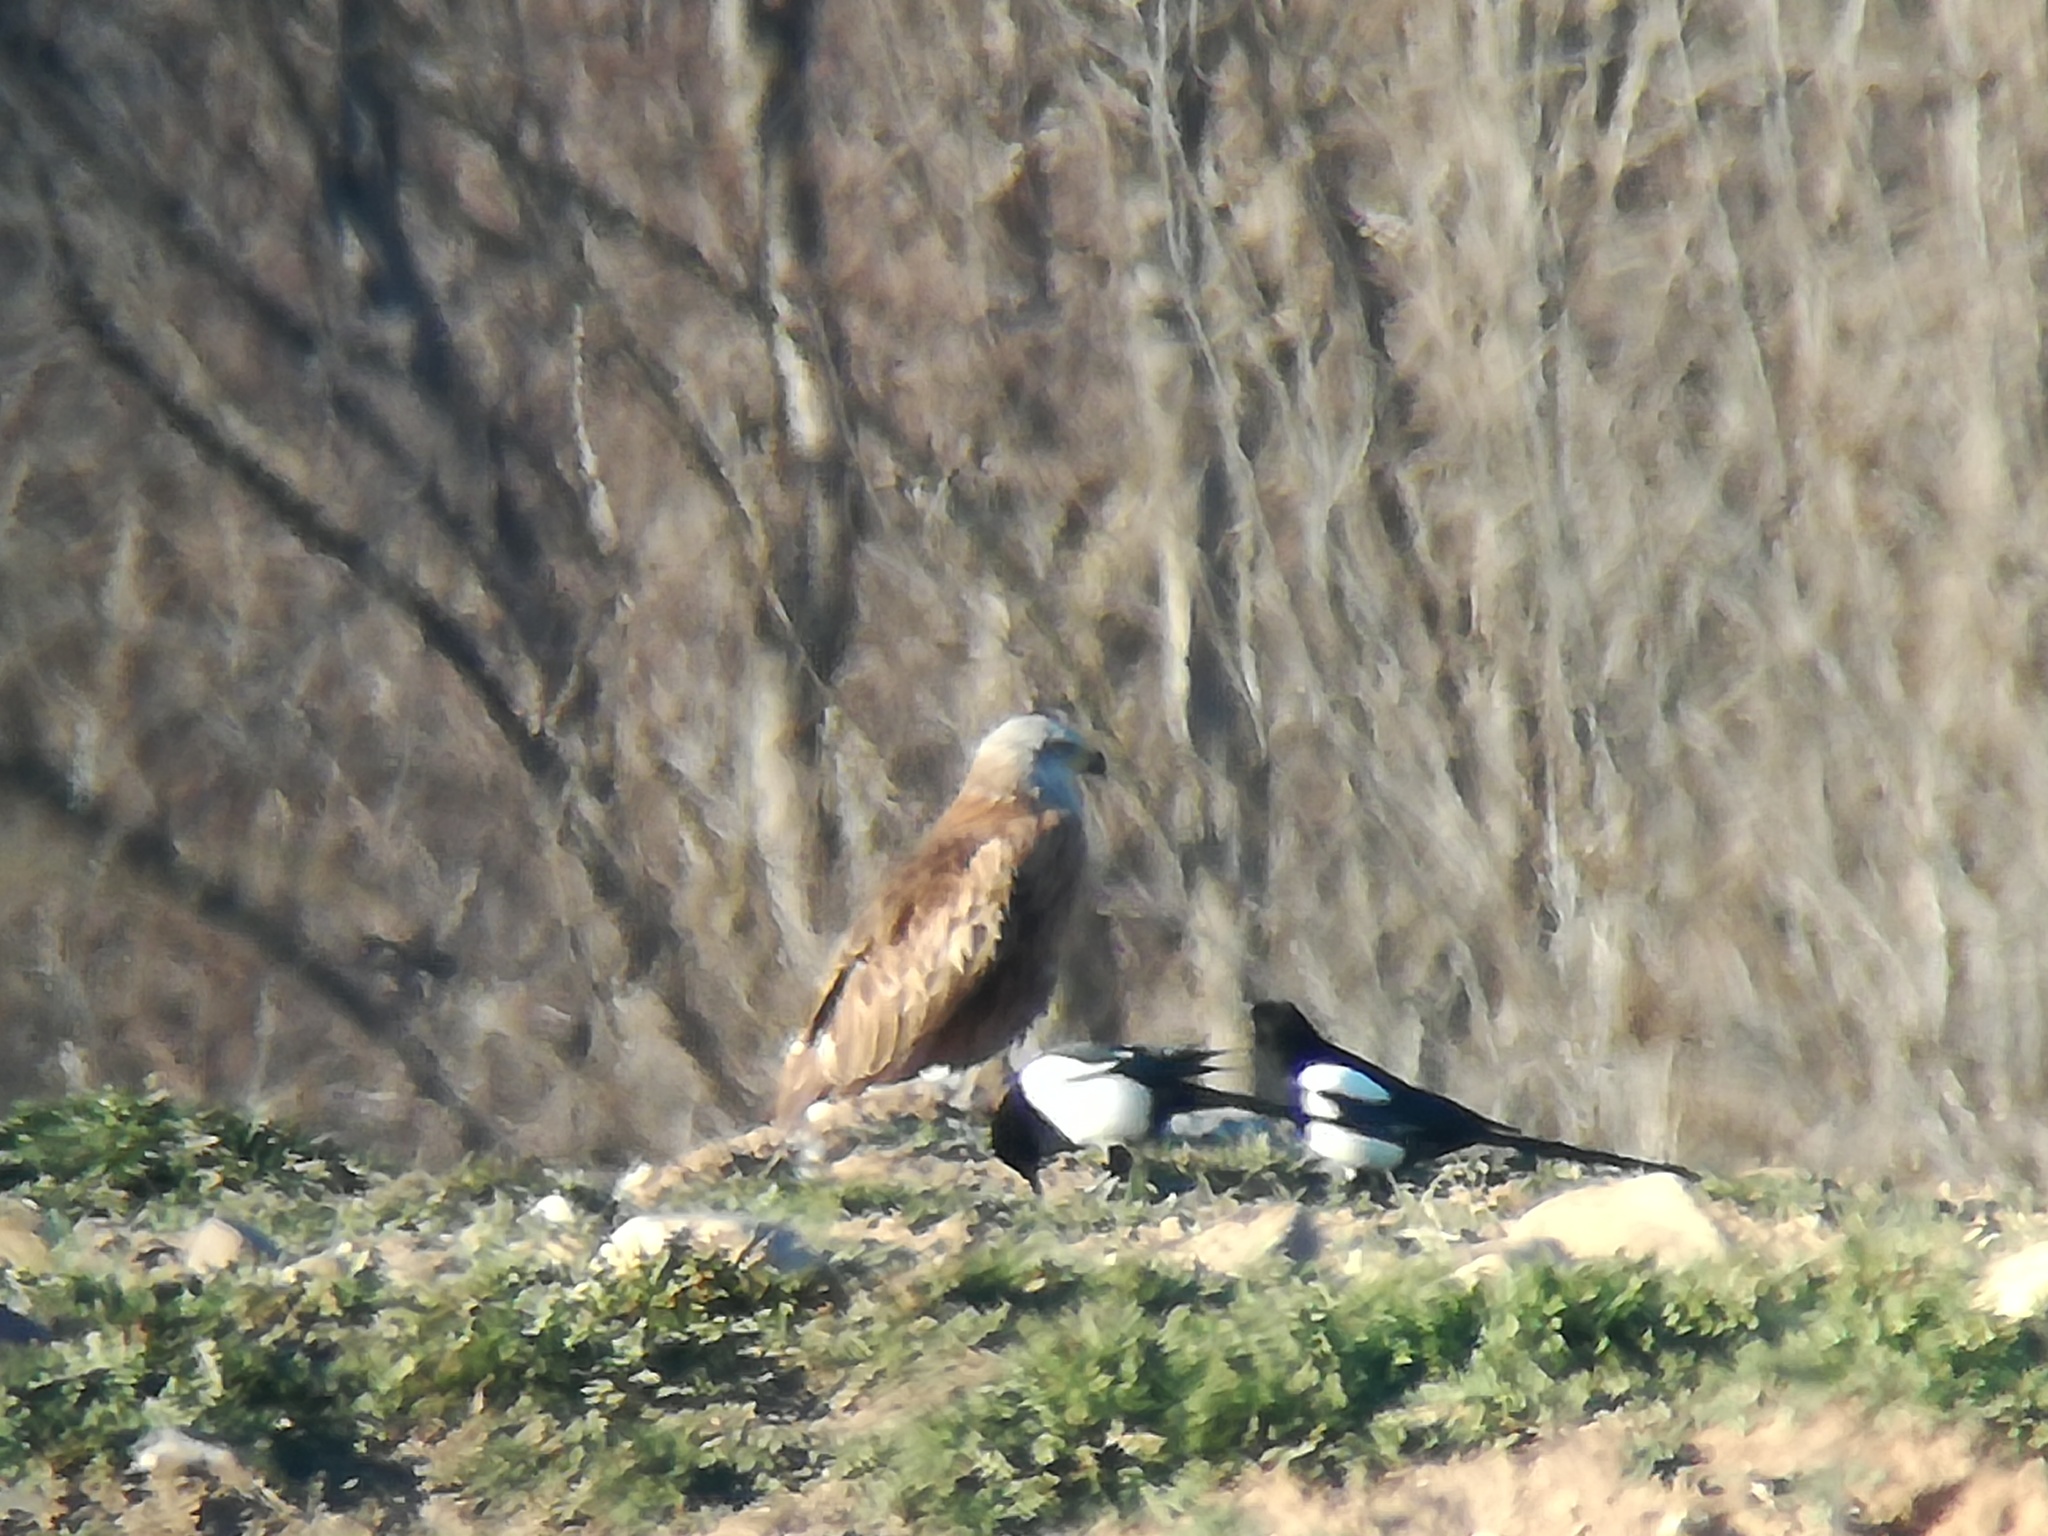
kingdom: Animalia
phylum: Chordata
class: Aves
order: Accipitriformes
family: Accipitridae
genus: Milvus
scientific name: Milvus milvus
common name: Red kite
